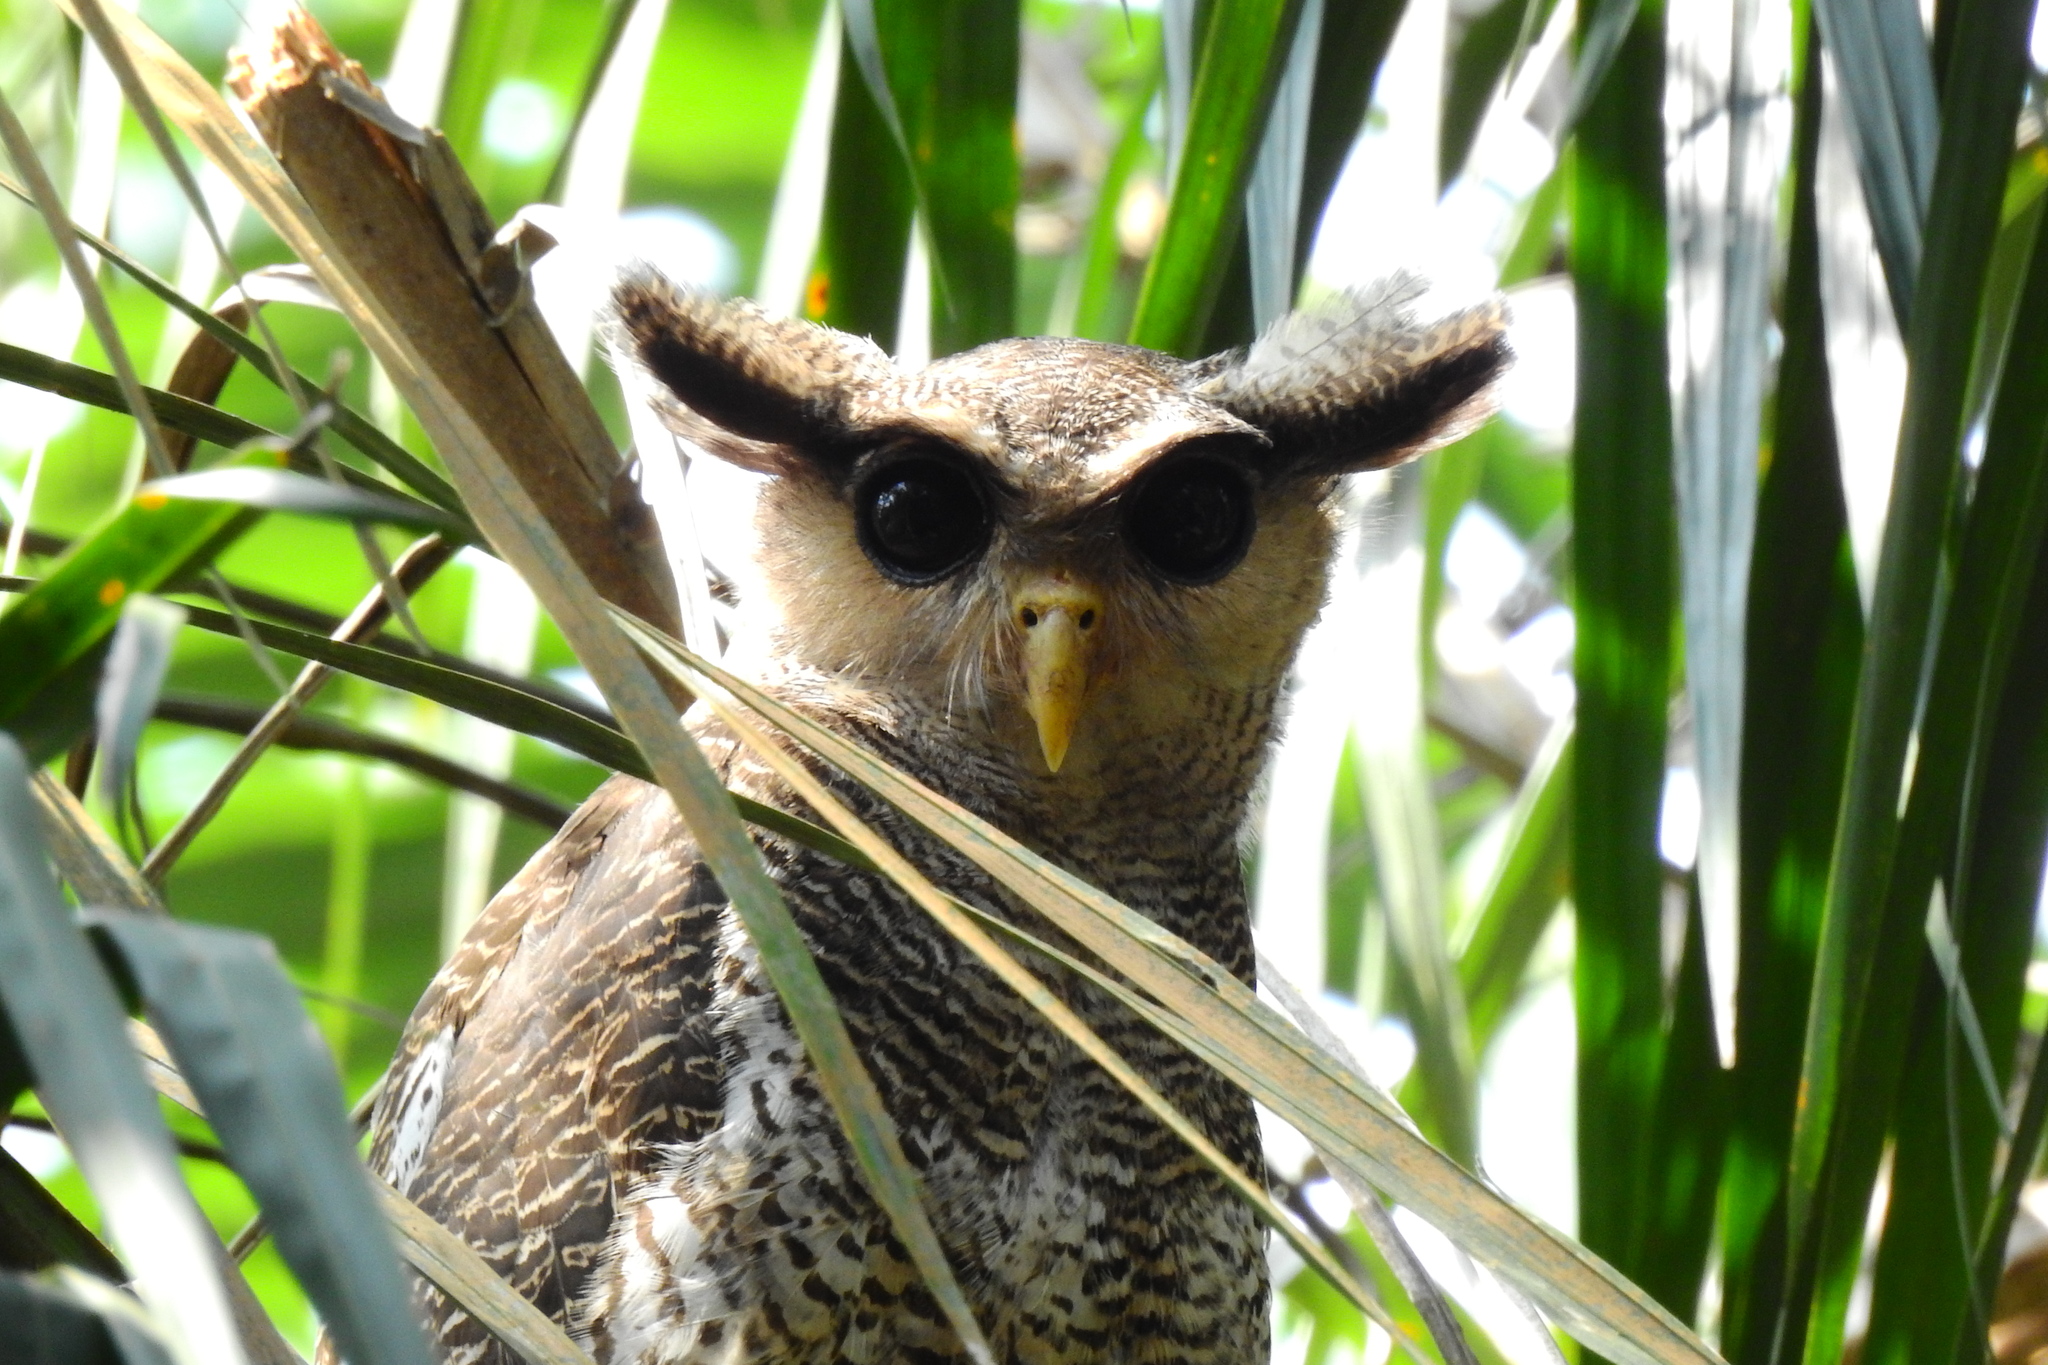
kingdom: Animalia
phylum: Chordata
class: Aves
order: Strigiformes
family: Strigidae
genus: Ketupa
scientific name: Ketupa sumatrana
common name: Barred eagle-owl
